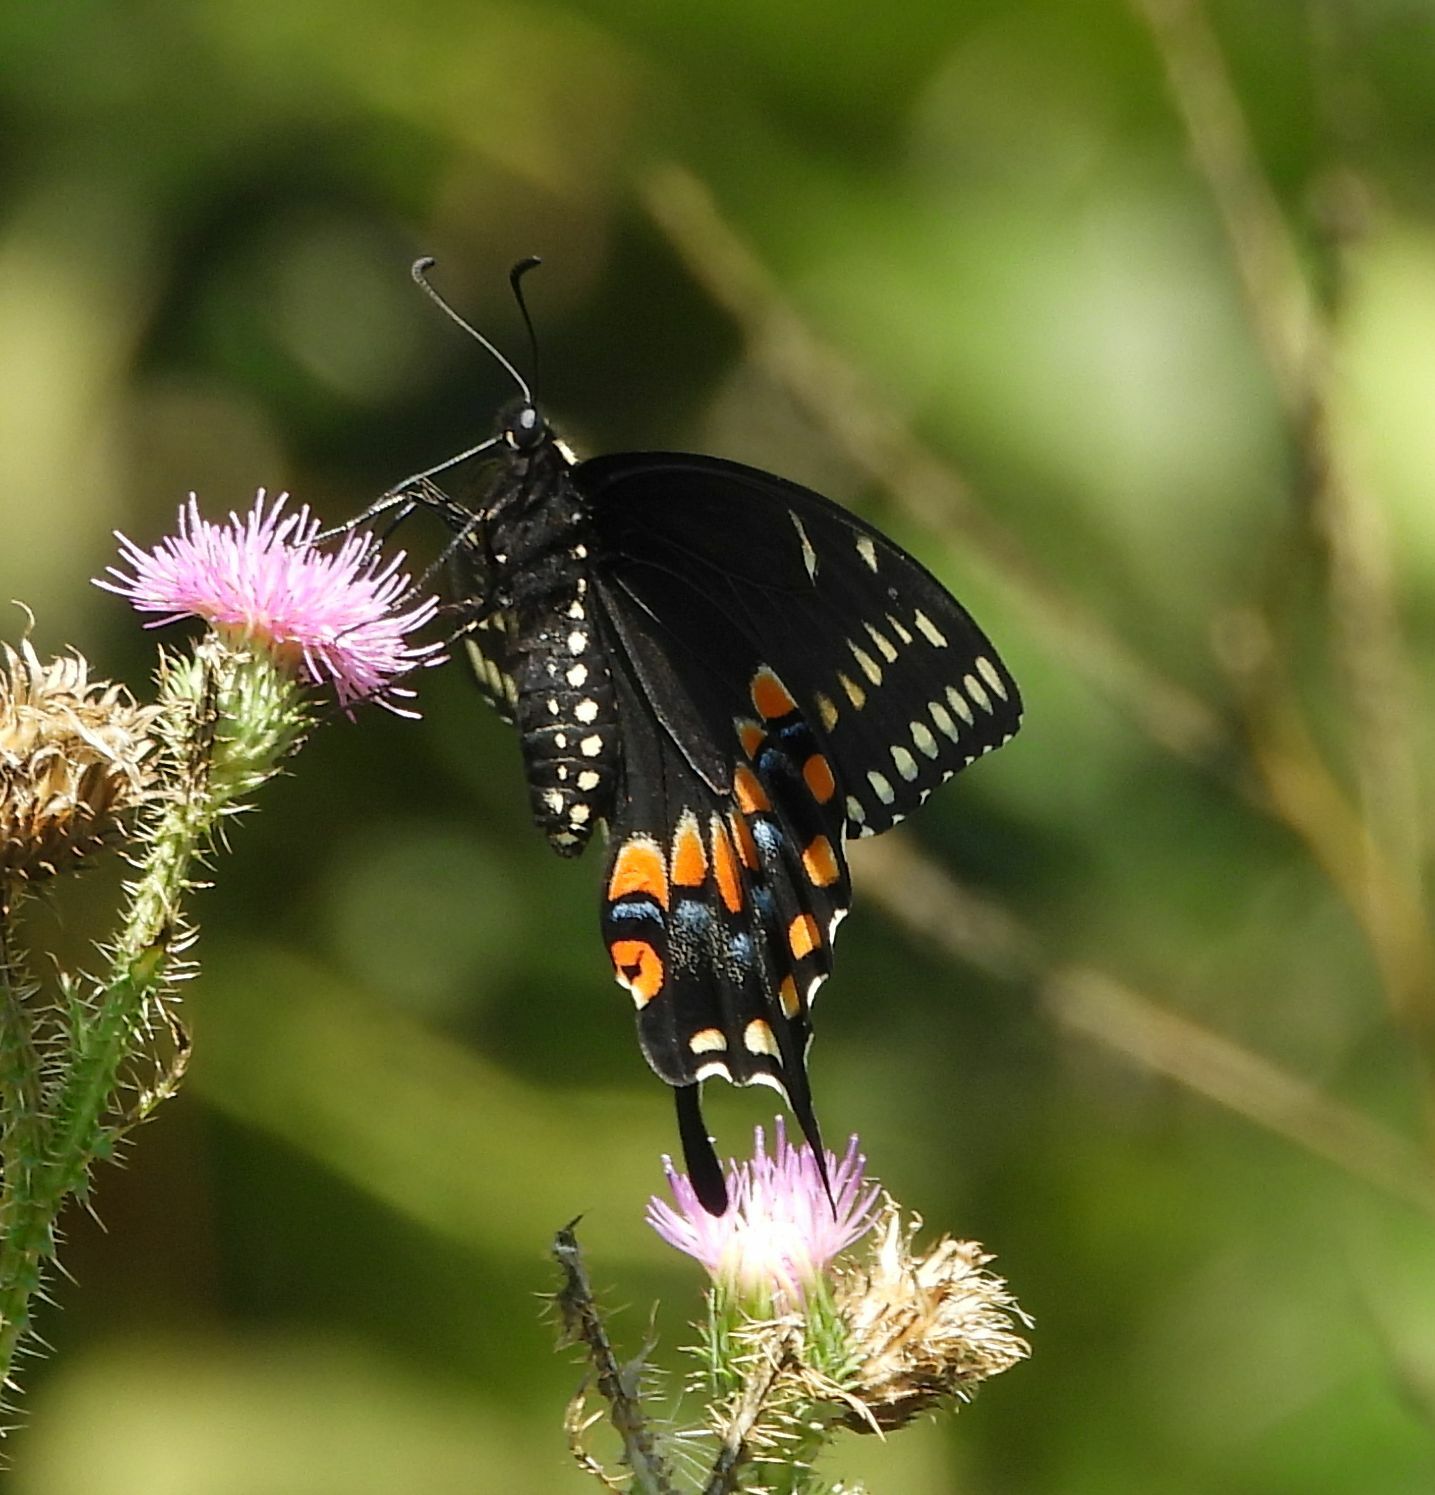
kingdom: Animalia
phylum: Arthropoda
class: Insecta
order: Lepidoptera
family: Papilionidae
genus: Papilio
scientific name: Papilio polyxenes
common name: Black swallowtail
